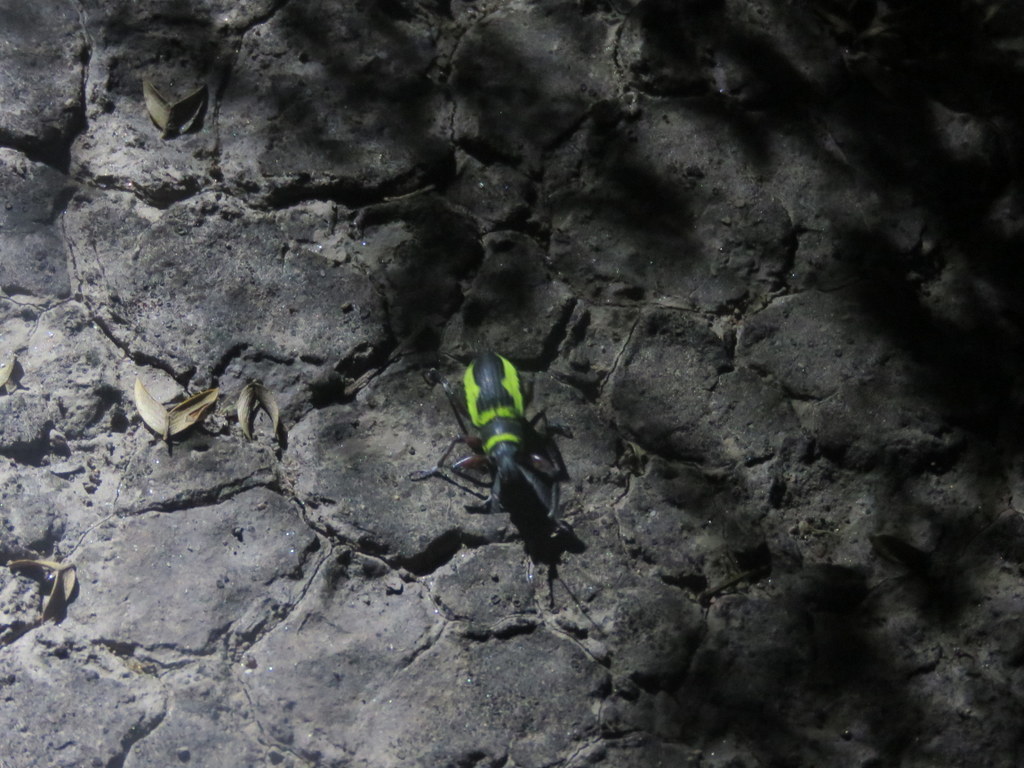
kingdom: Animalia
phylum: Arthropoda
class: Insecta
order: Coleoptera
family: Curculionidae
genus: Naupactus
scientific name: Naupactus sulphurifer
